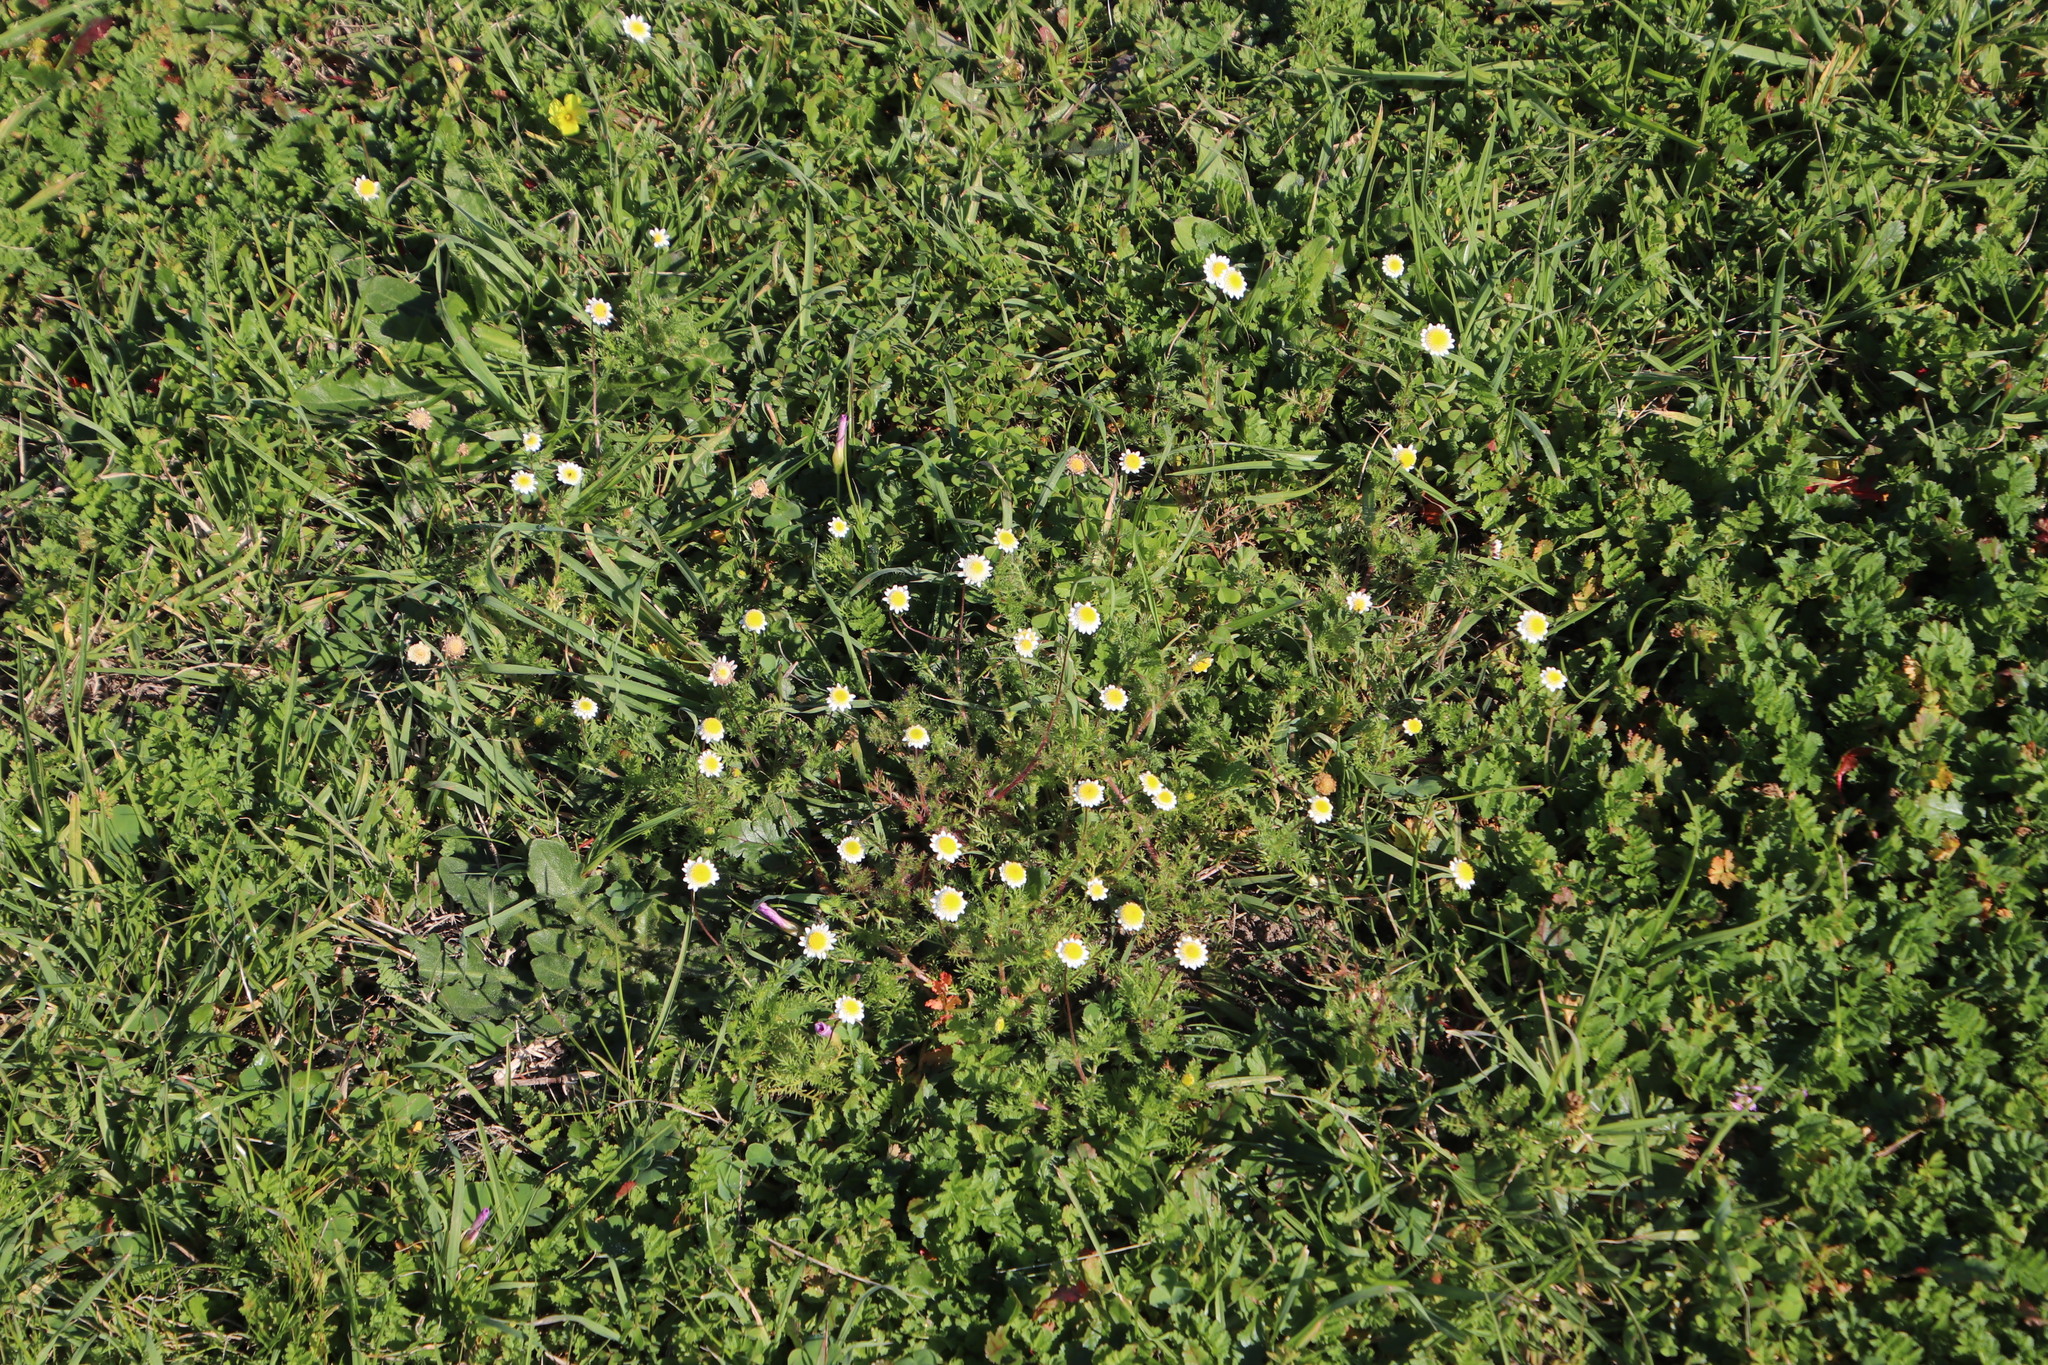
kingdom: Plantae
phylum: Tracheophyta
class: Magnoliopsida
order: Asterales
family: Asteraceae
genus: Cotula
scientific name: Cotula turbinata
